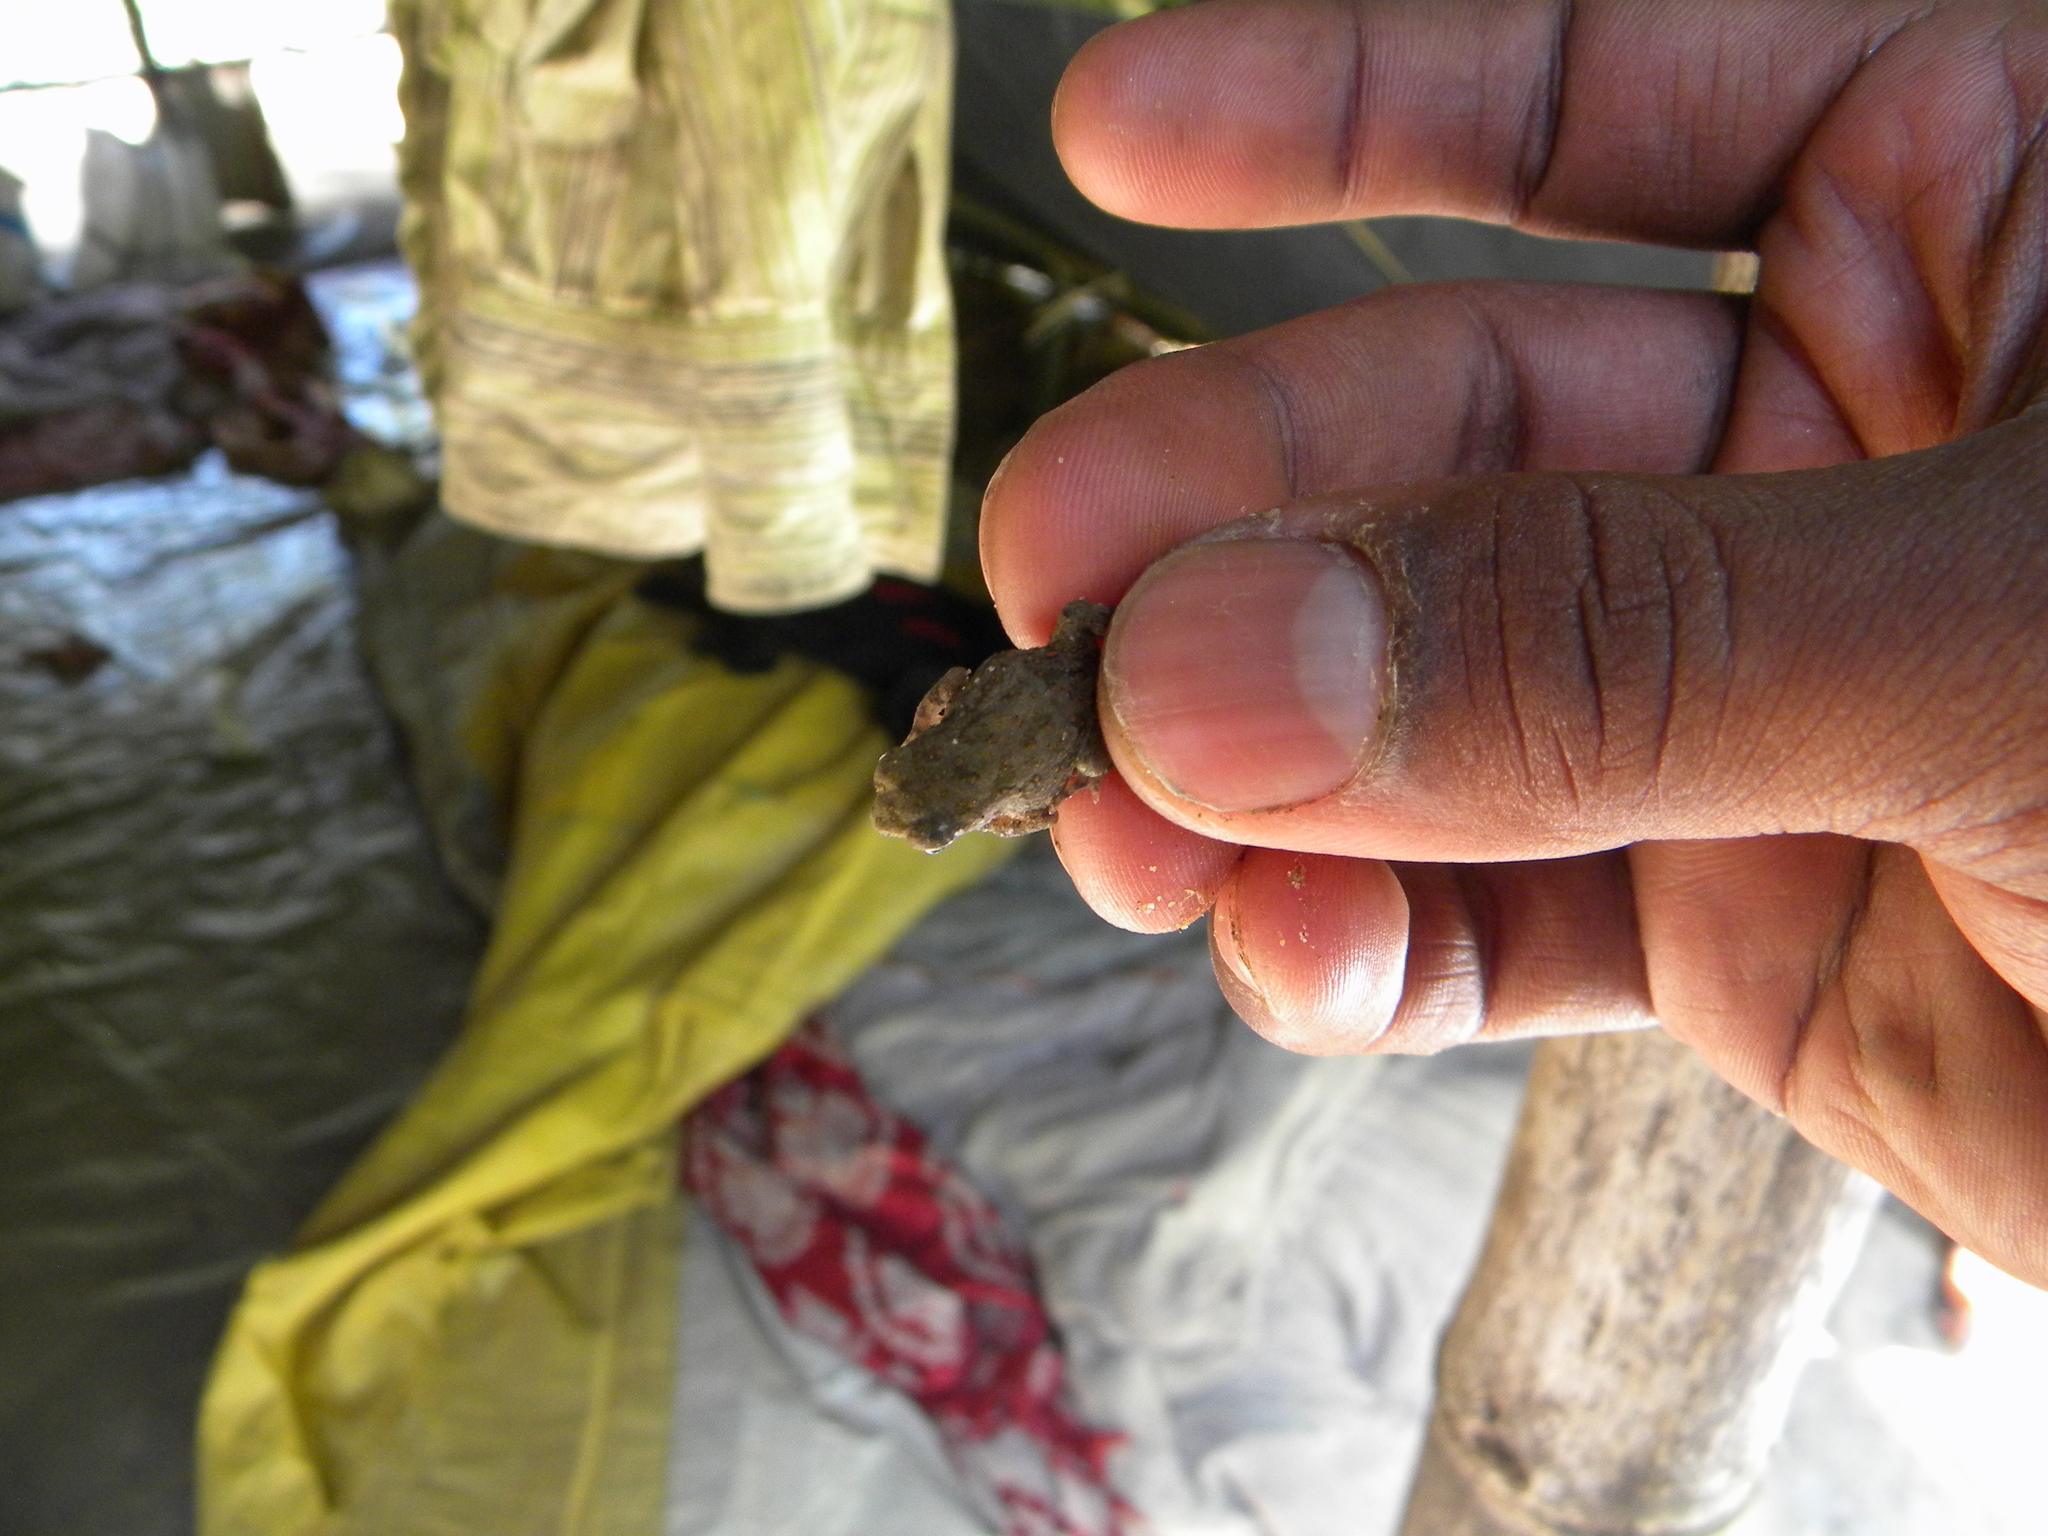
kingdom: Animalia
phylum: Chordata
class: Amphibia
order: Anura
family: Bufonidae
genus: Duttaphrynus
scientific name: Duttaphrynus melanostictus
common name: Common sunda toad
